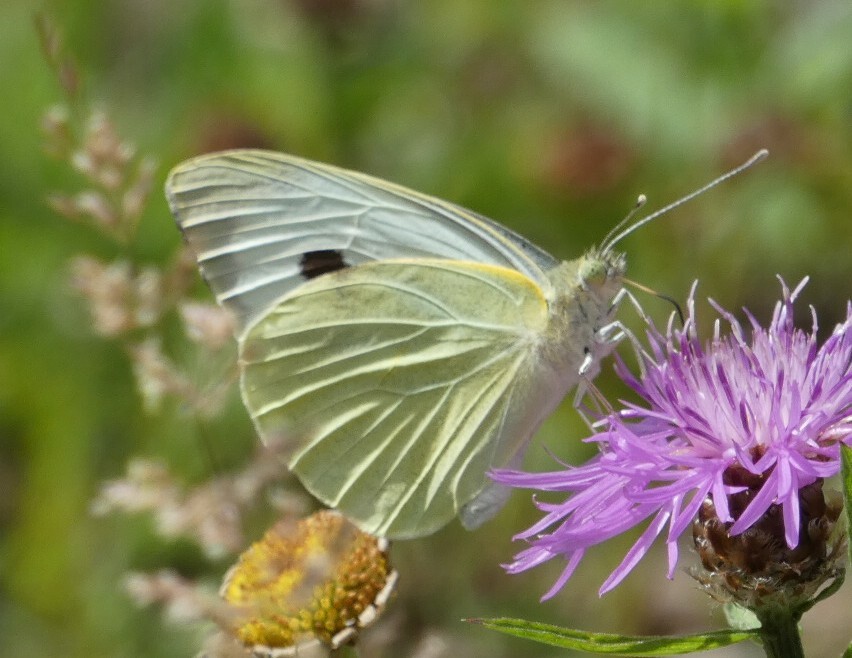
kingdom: Animalia
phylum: Arthropoda
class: Insecta
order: Lepidoptera
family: Pieridae
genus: Pieris
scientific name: Pieris brassicae
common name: Large white
